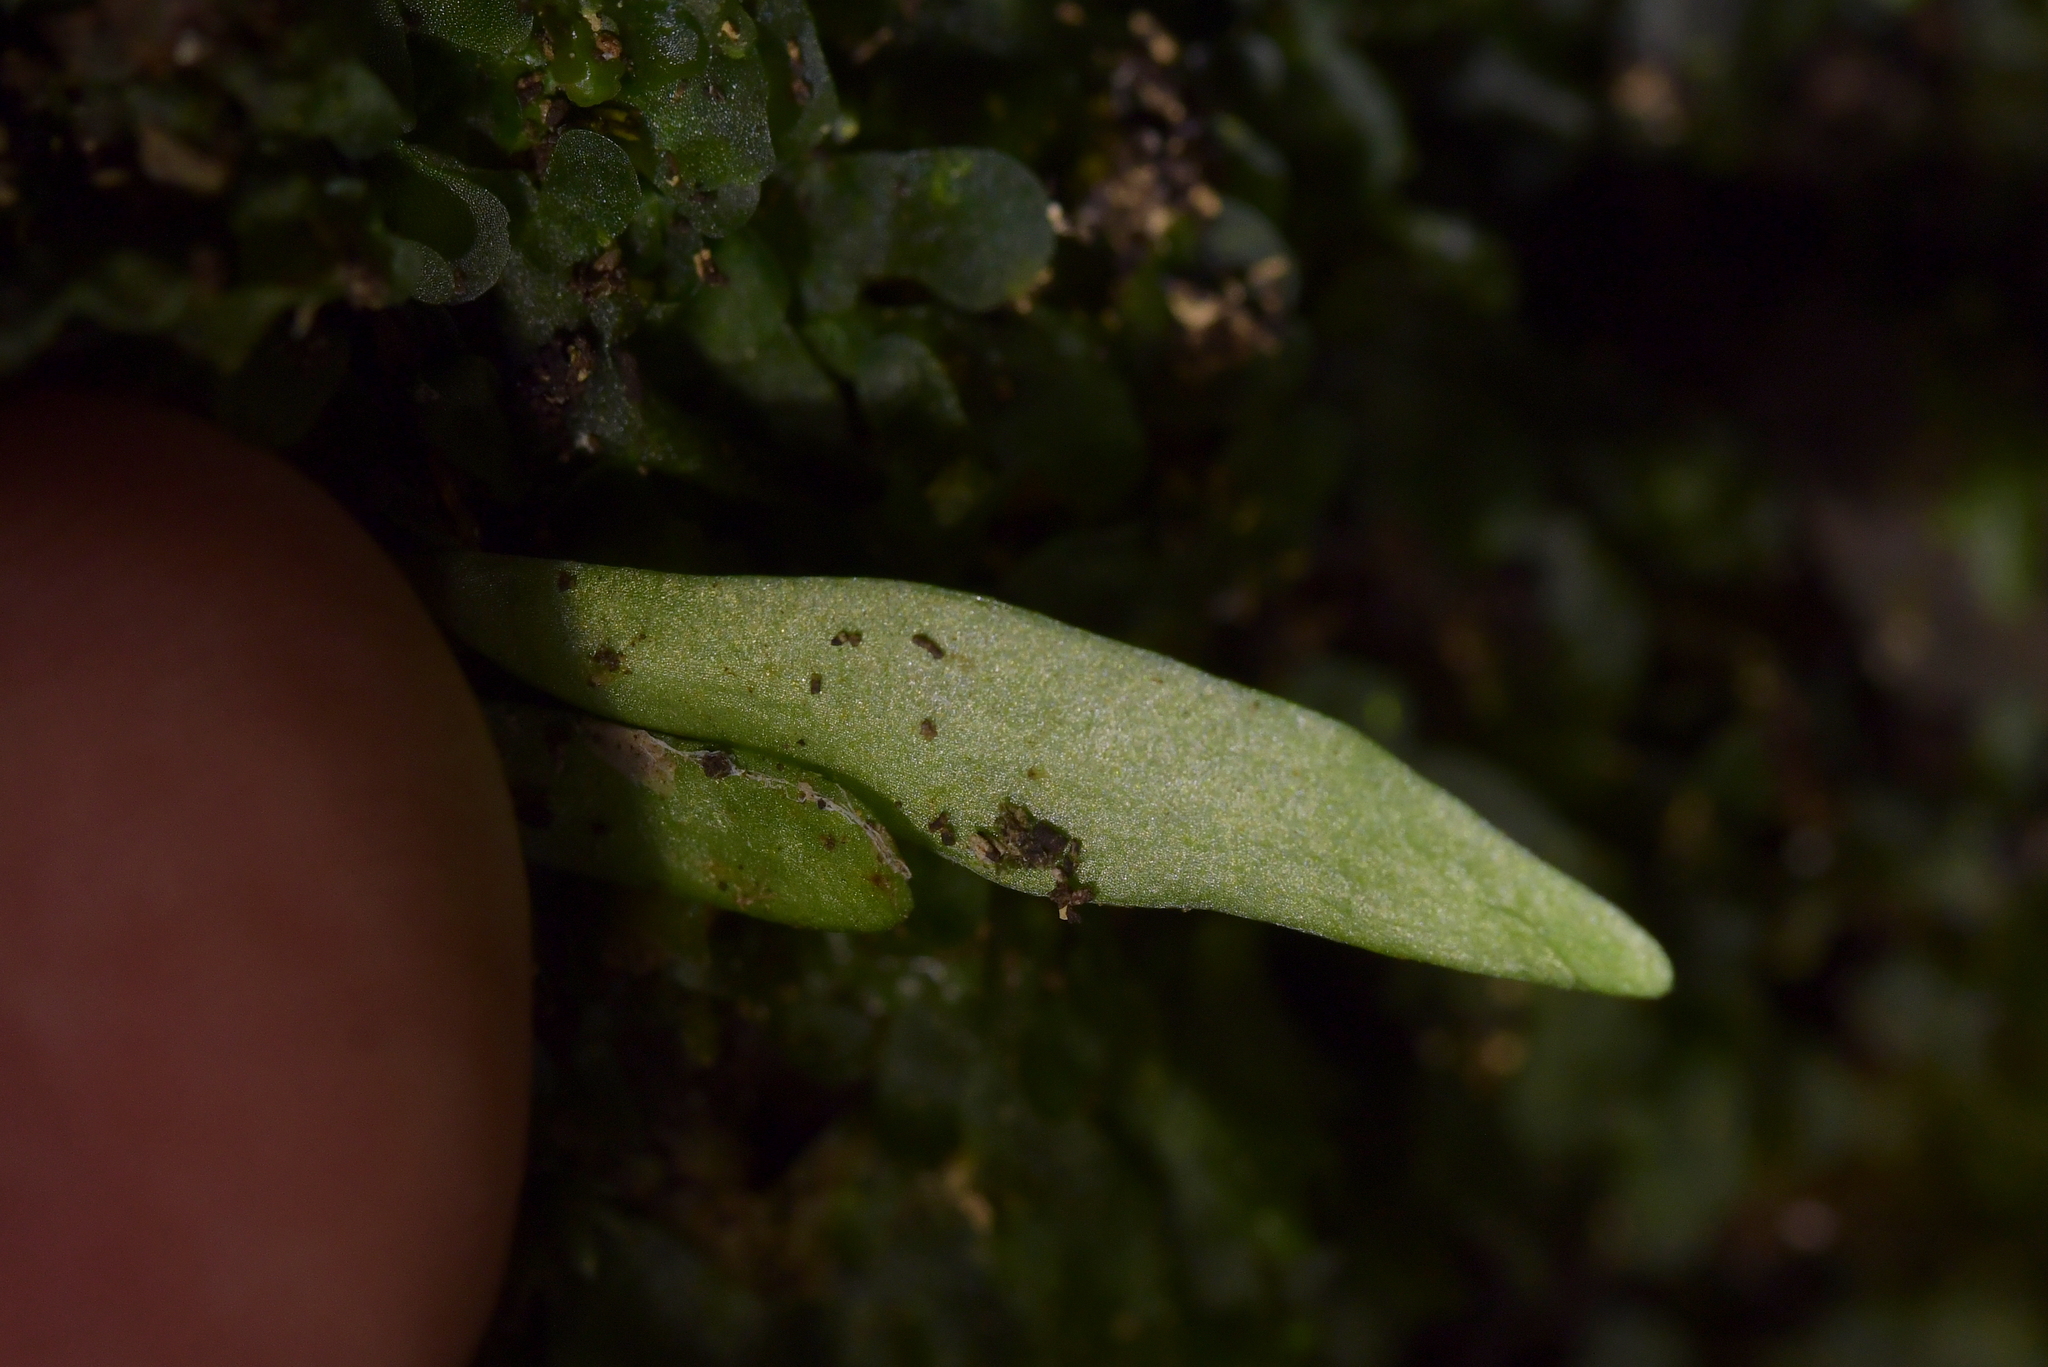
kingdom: Plantae
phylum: Tracheophyta
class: Polypodiopsida
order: Polypodiales
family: Polypodiaceae
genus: Loxogramme
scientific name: Loxogramme dictyopteris
